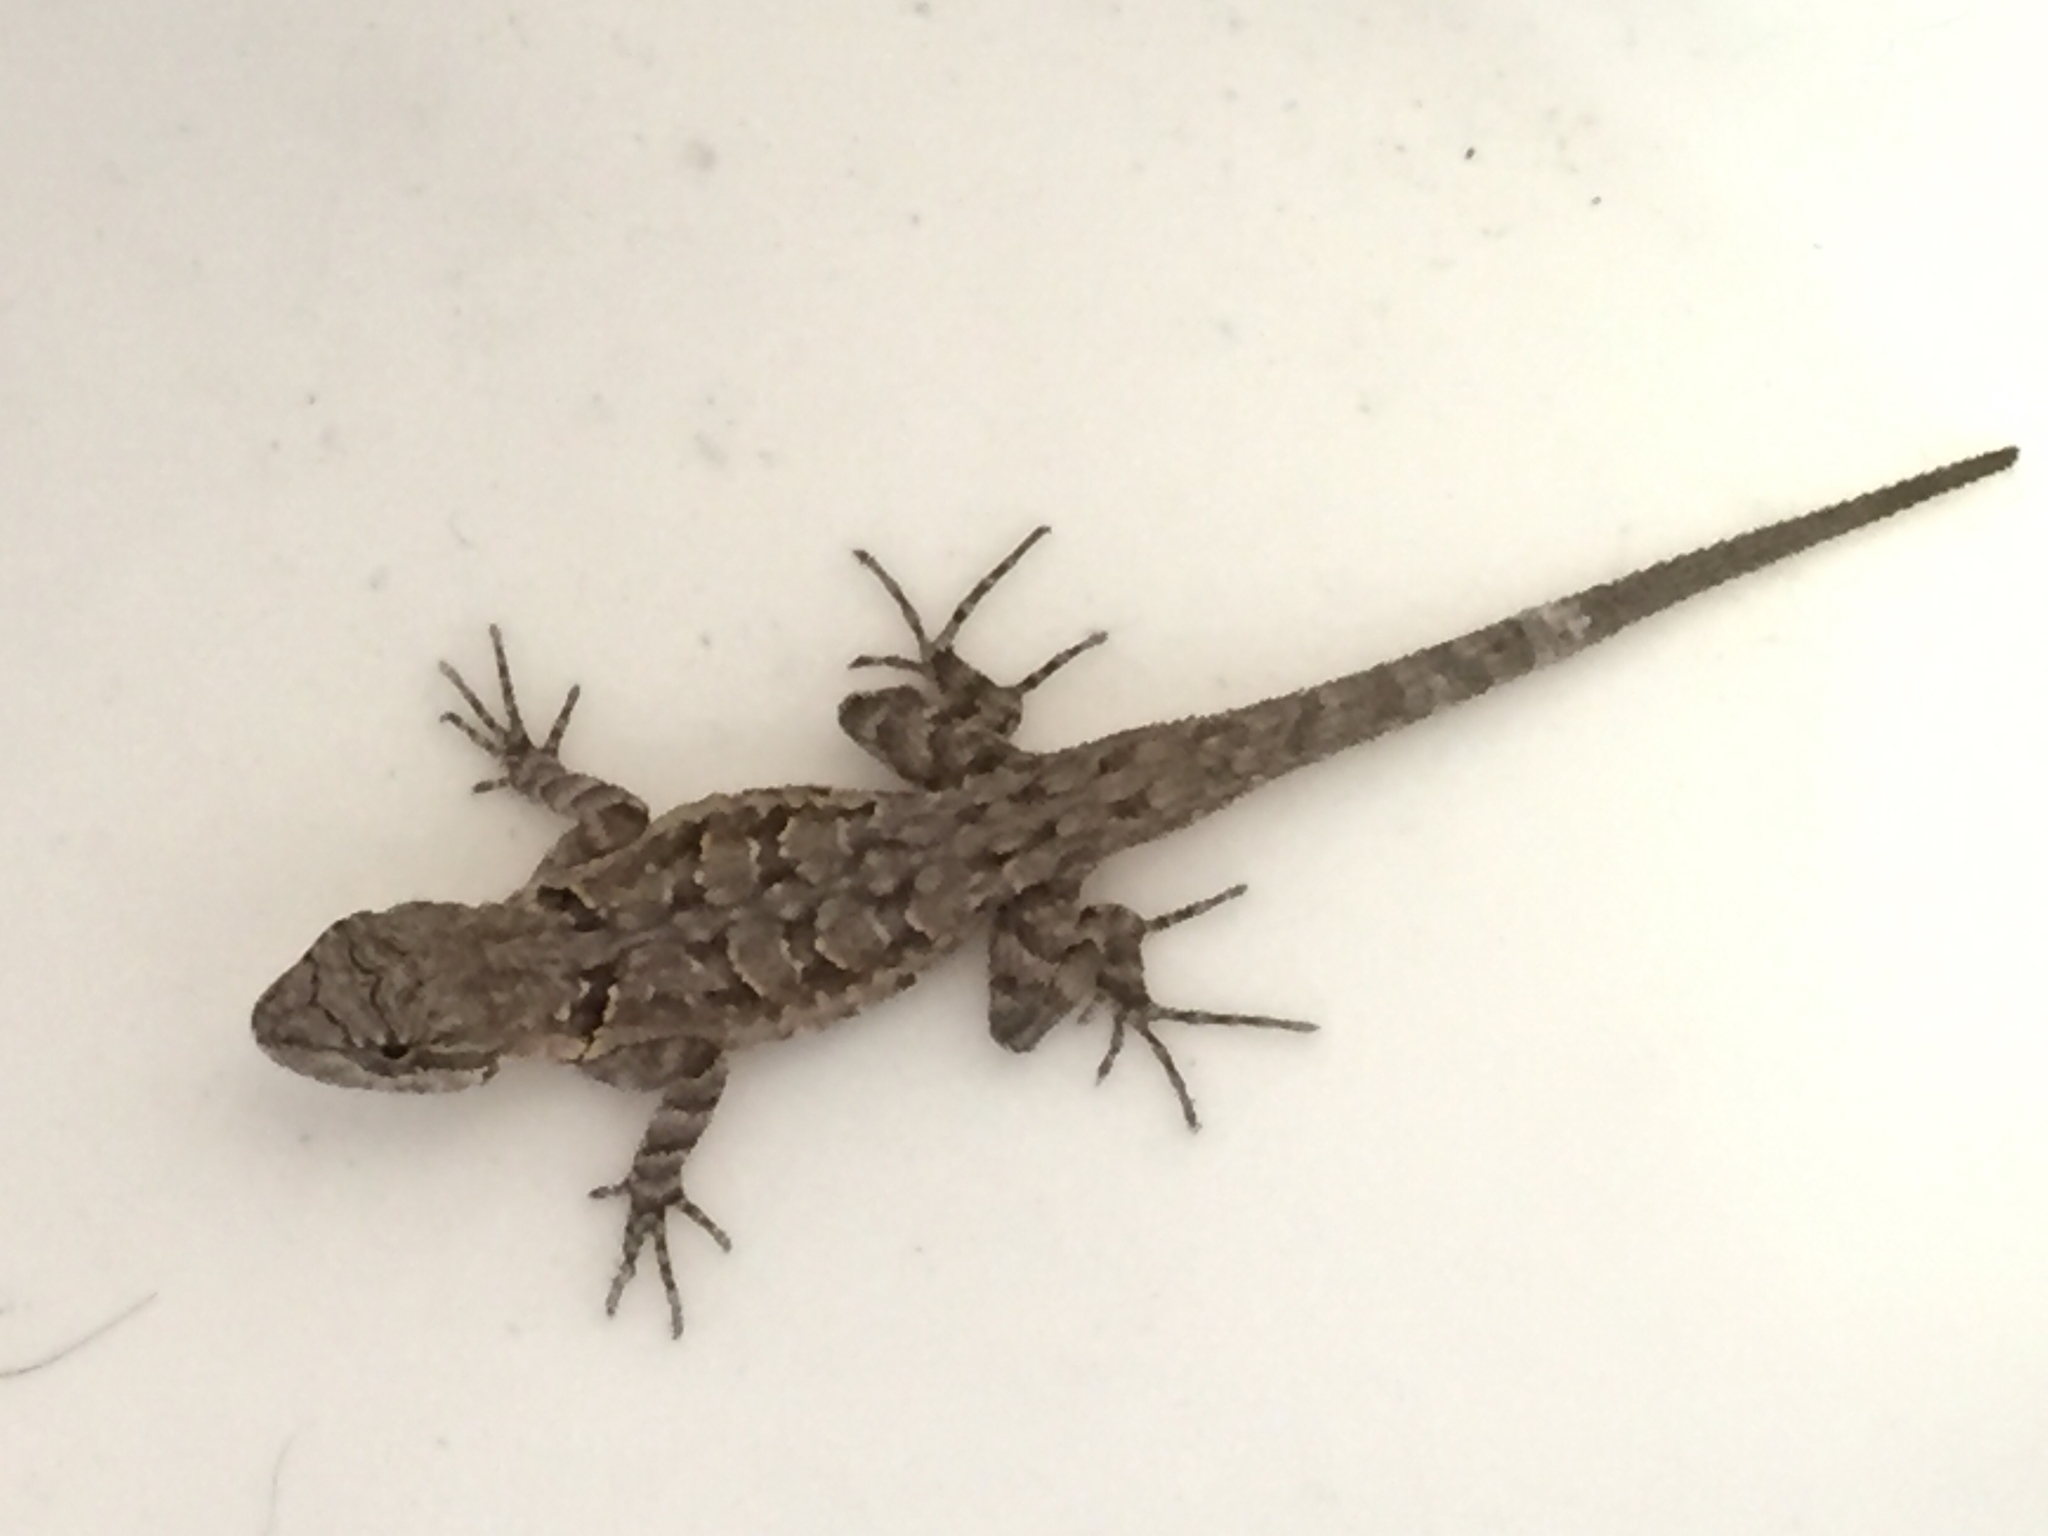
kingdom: Animalia
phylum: Chordata
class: Squamata
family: Phrynosomatidae
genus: Urosaurus
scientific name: Urosaurus ornatus
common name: Ornate tree lizard
